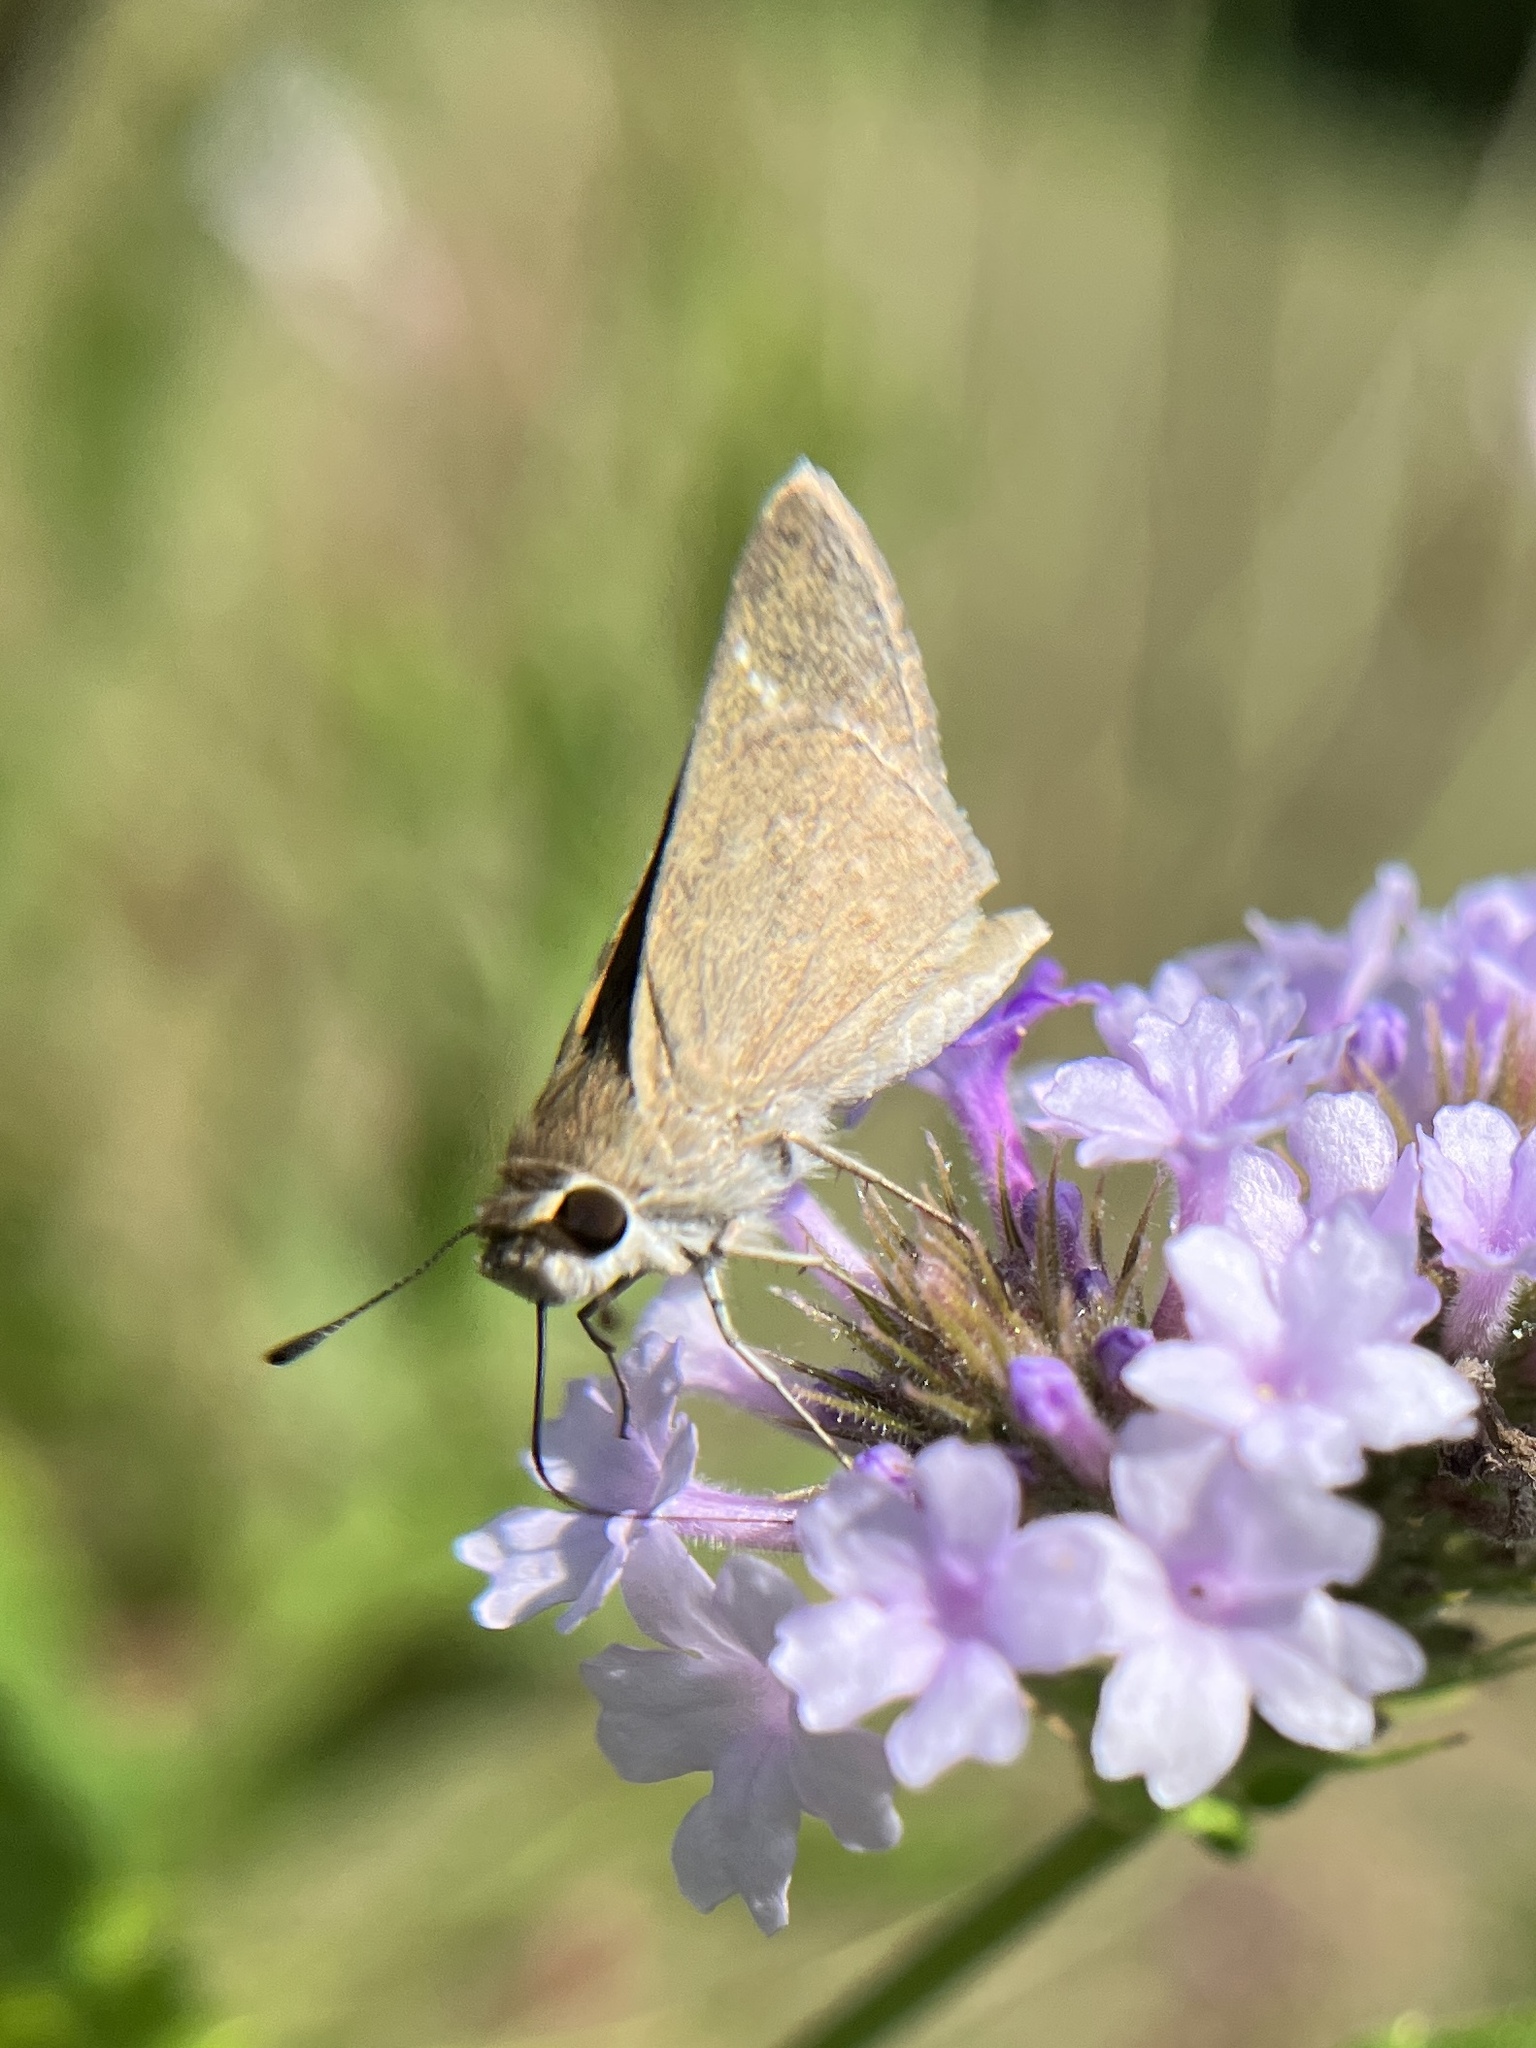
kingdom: Animalia
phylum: Arthropoda
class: Insecta
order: Lepidoptera
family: Hesperiidae
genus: Lerodea
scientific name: Lerodea eufala
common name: Eufala skipper
